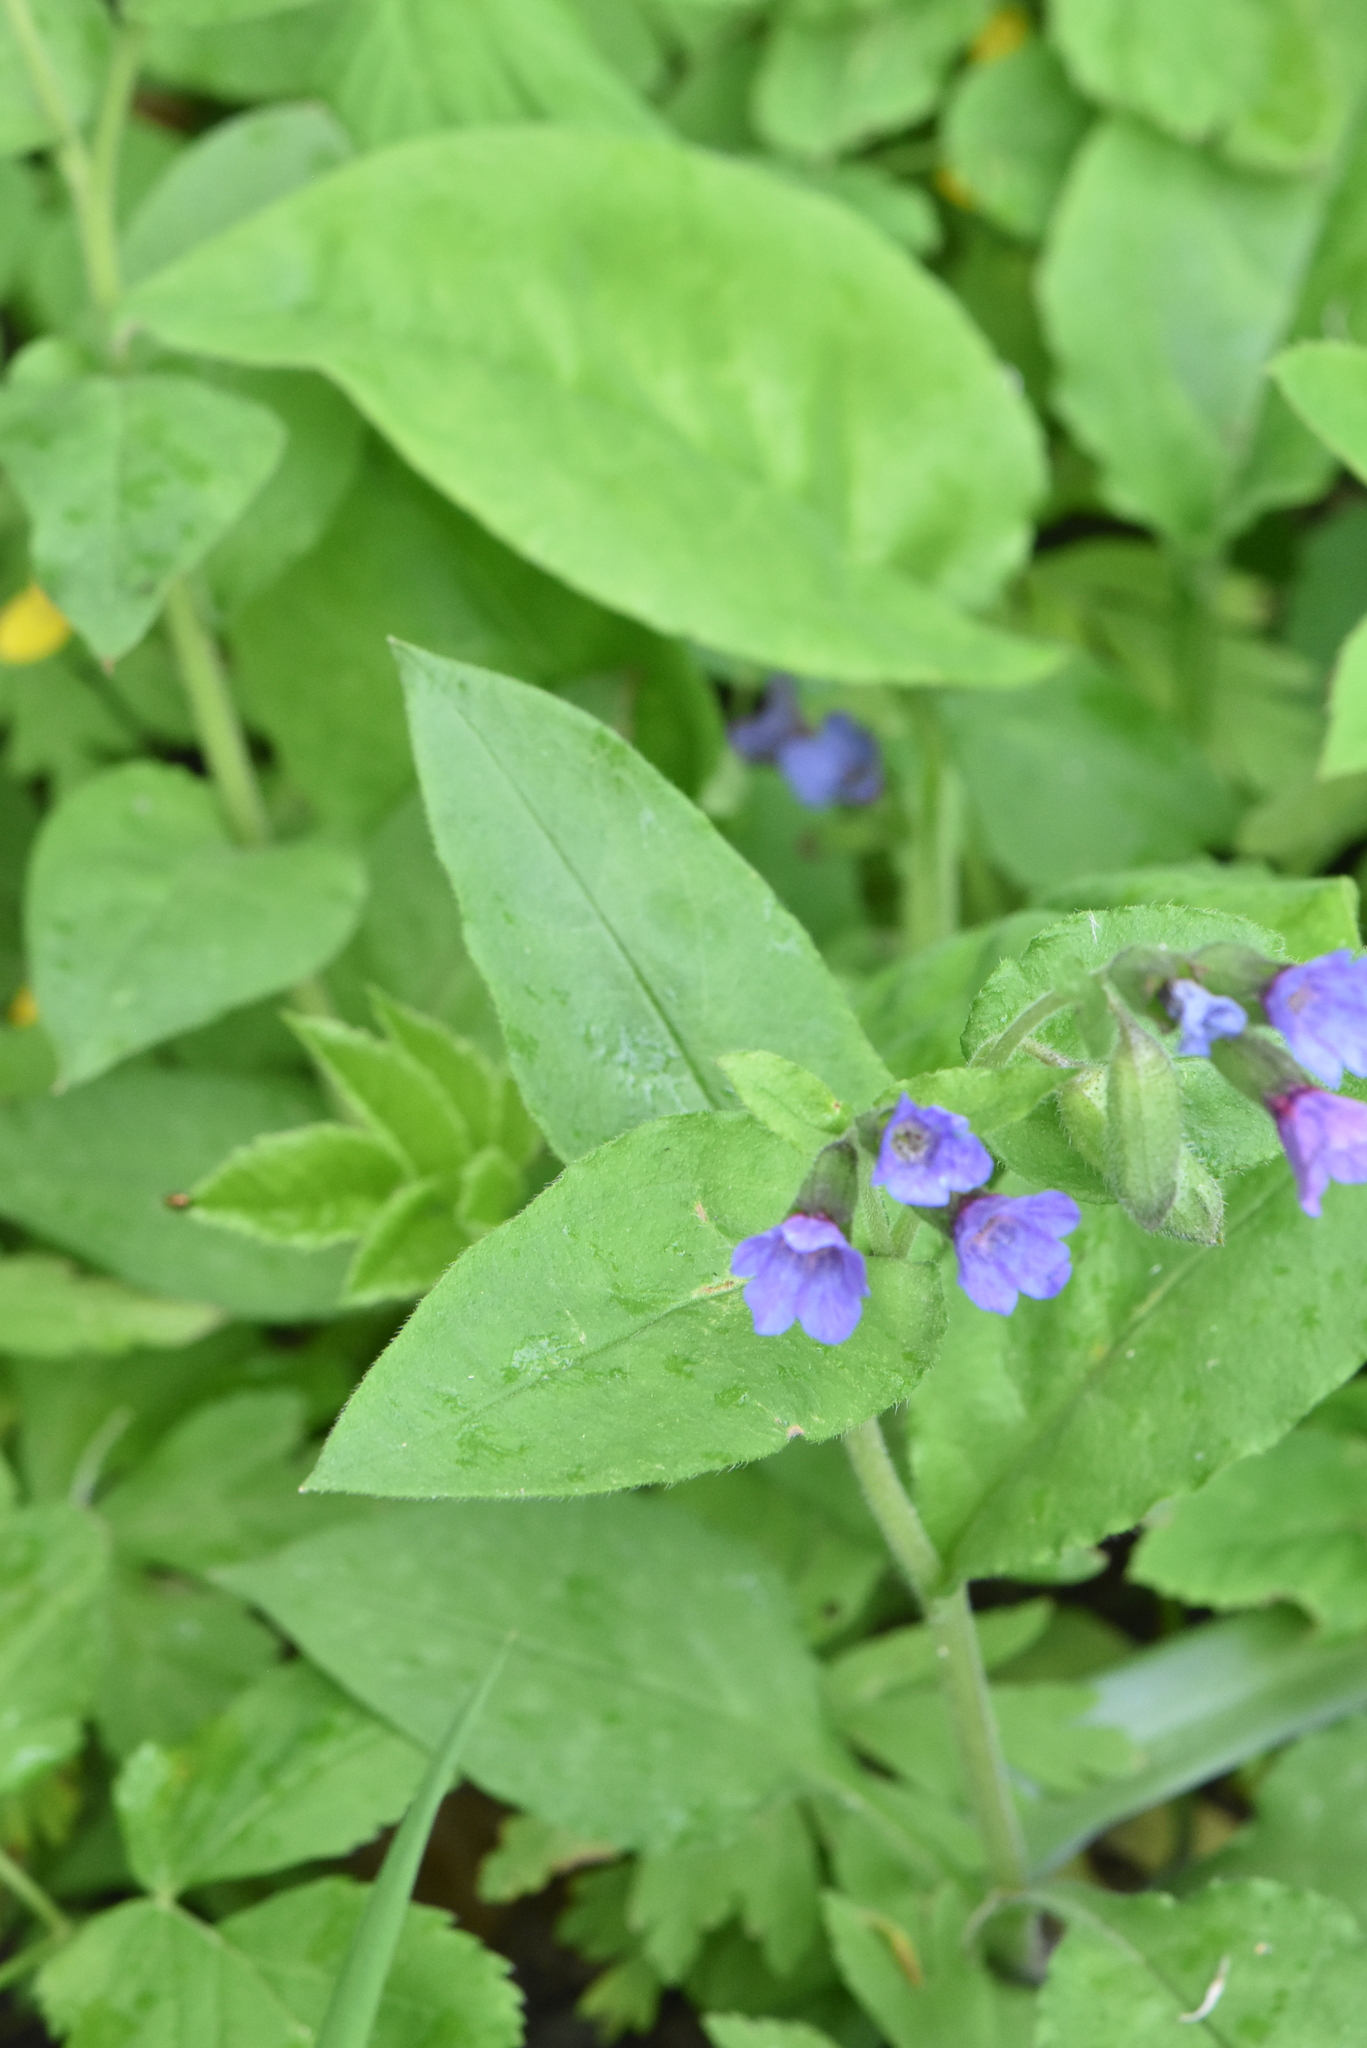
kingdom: Plantae
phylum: Tracheophyta
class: Magnoliopsida
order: Boraginales
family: Boraginaceae
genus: Pulmonaria
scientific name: Pulmonaria obscura
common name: Suffolk lungwort
